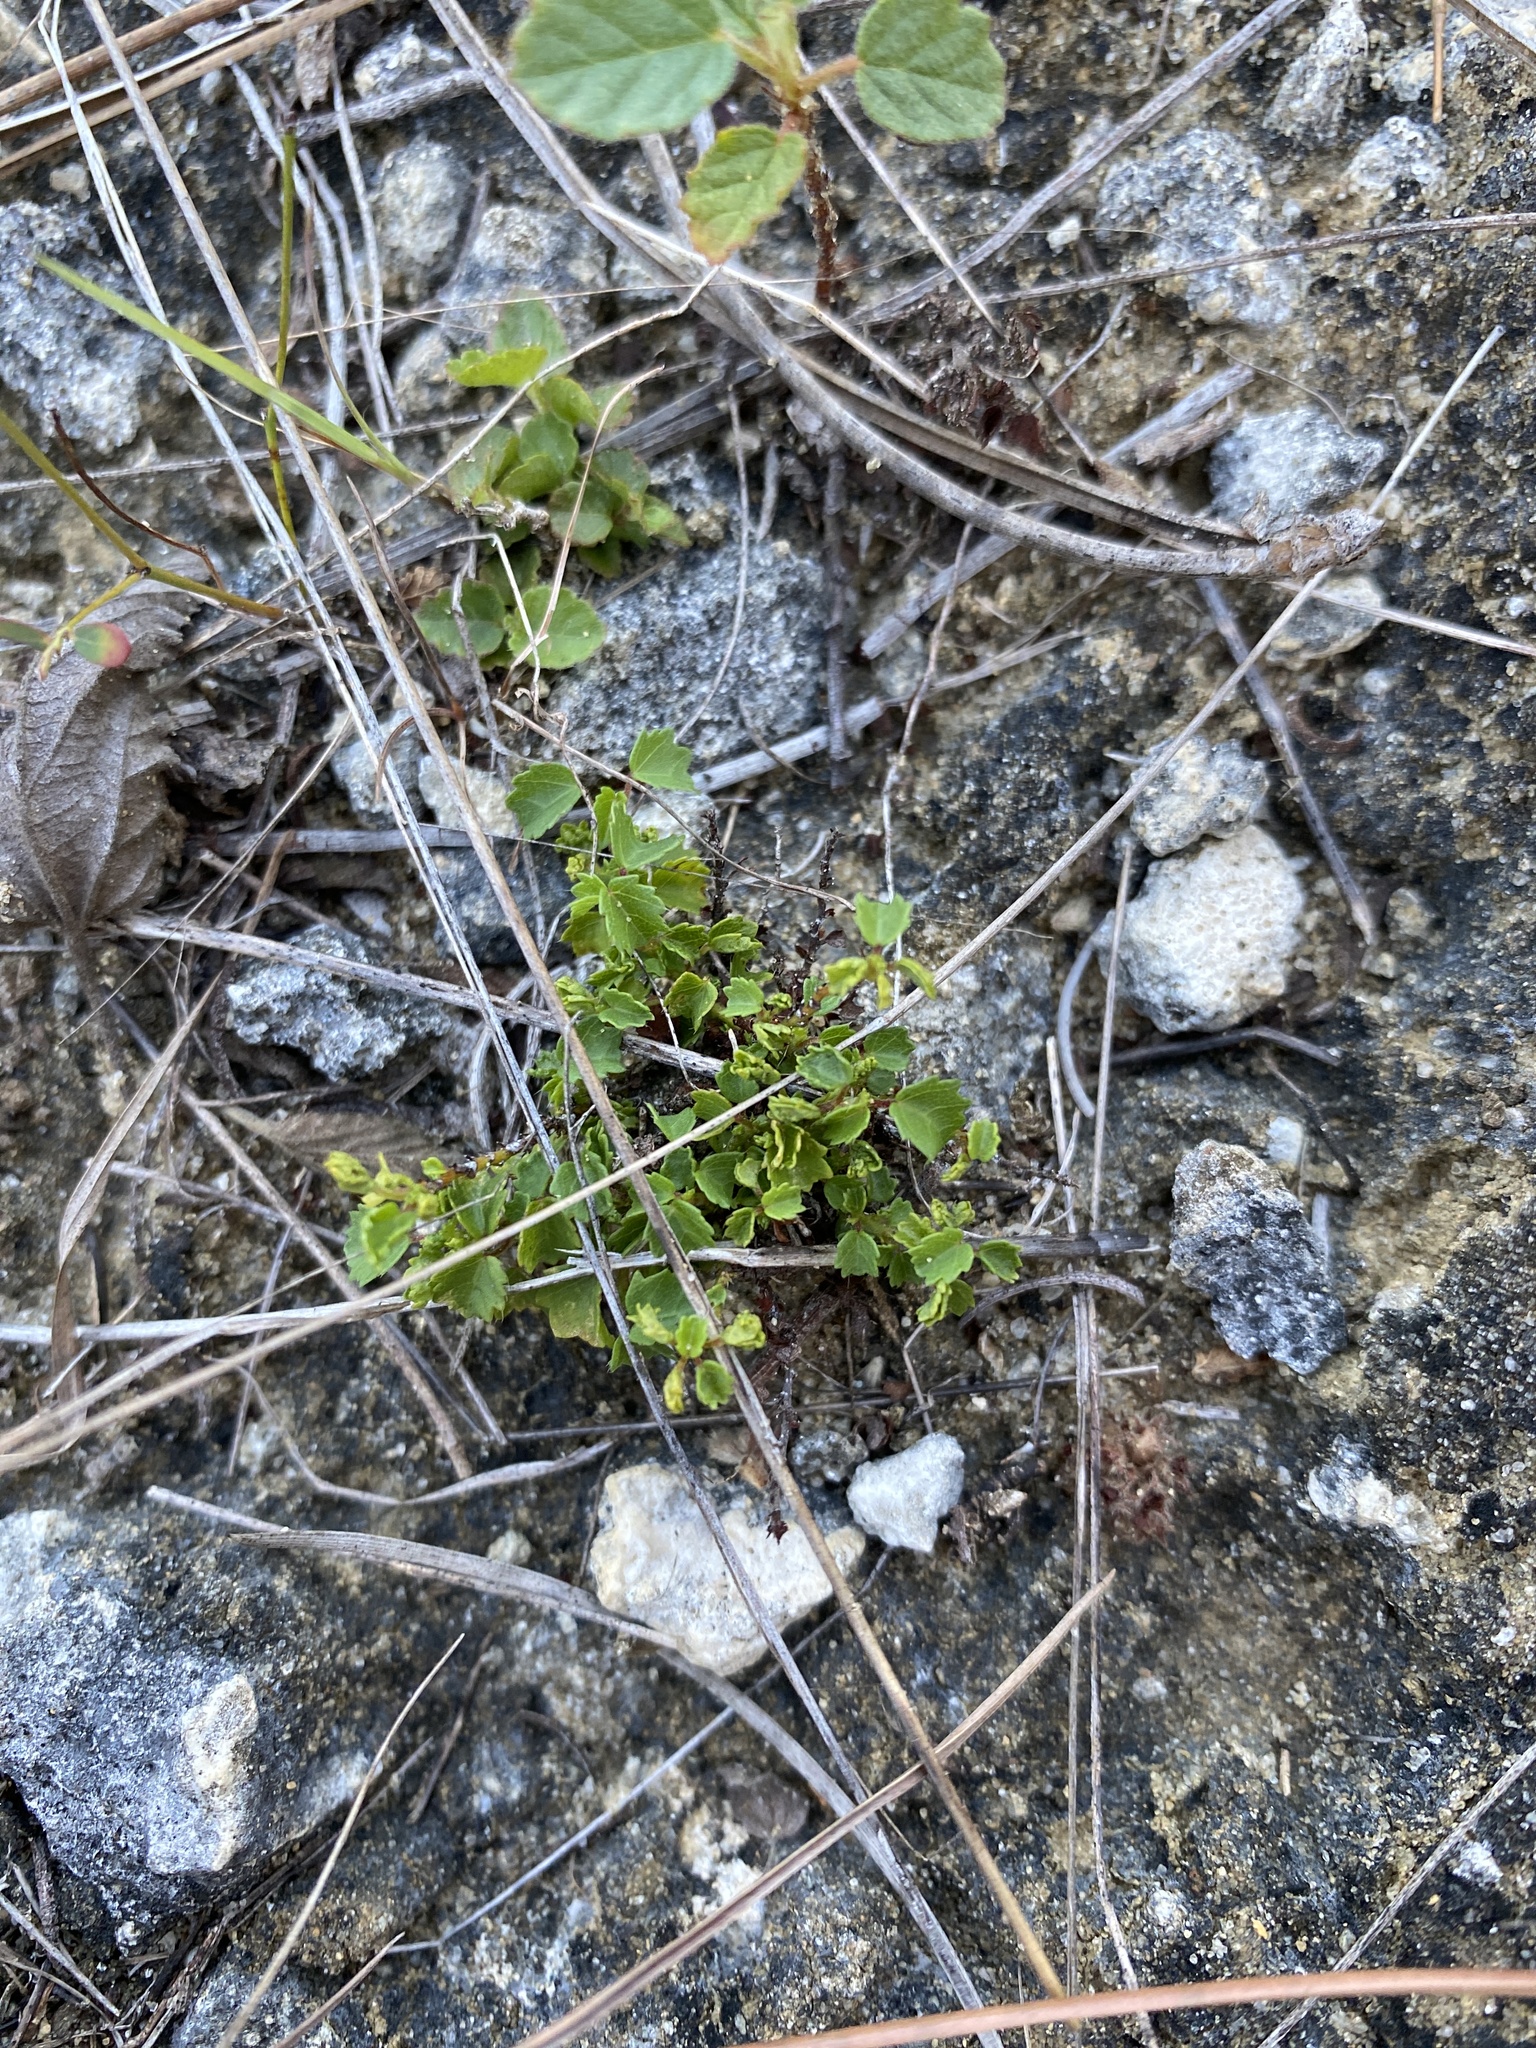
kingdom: Plantae
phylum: Tracheophyta
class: Magnoliopsida
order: Malvales
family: Malvaceae
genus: Ayenia
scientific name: Ayenia euphrasiifolia
